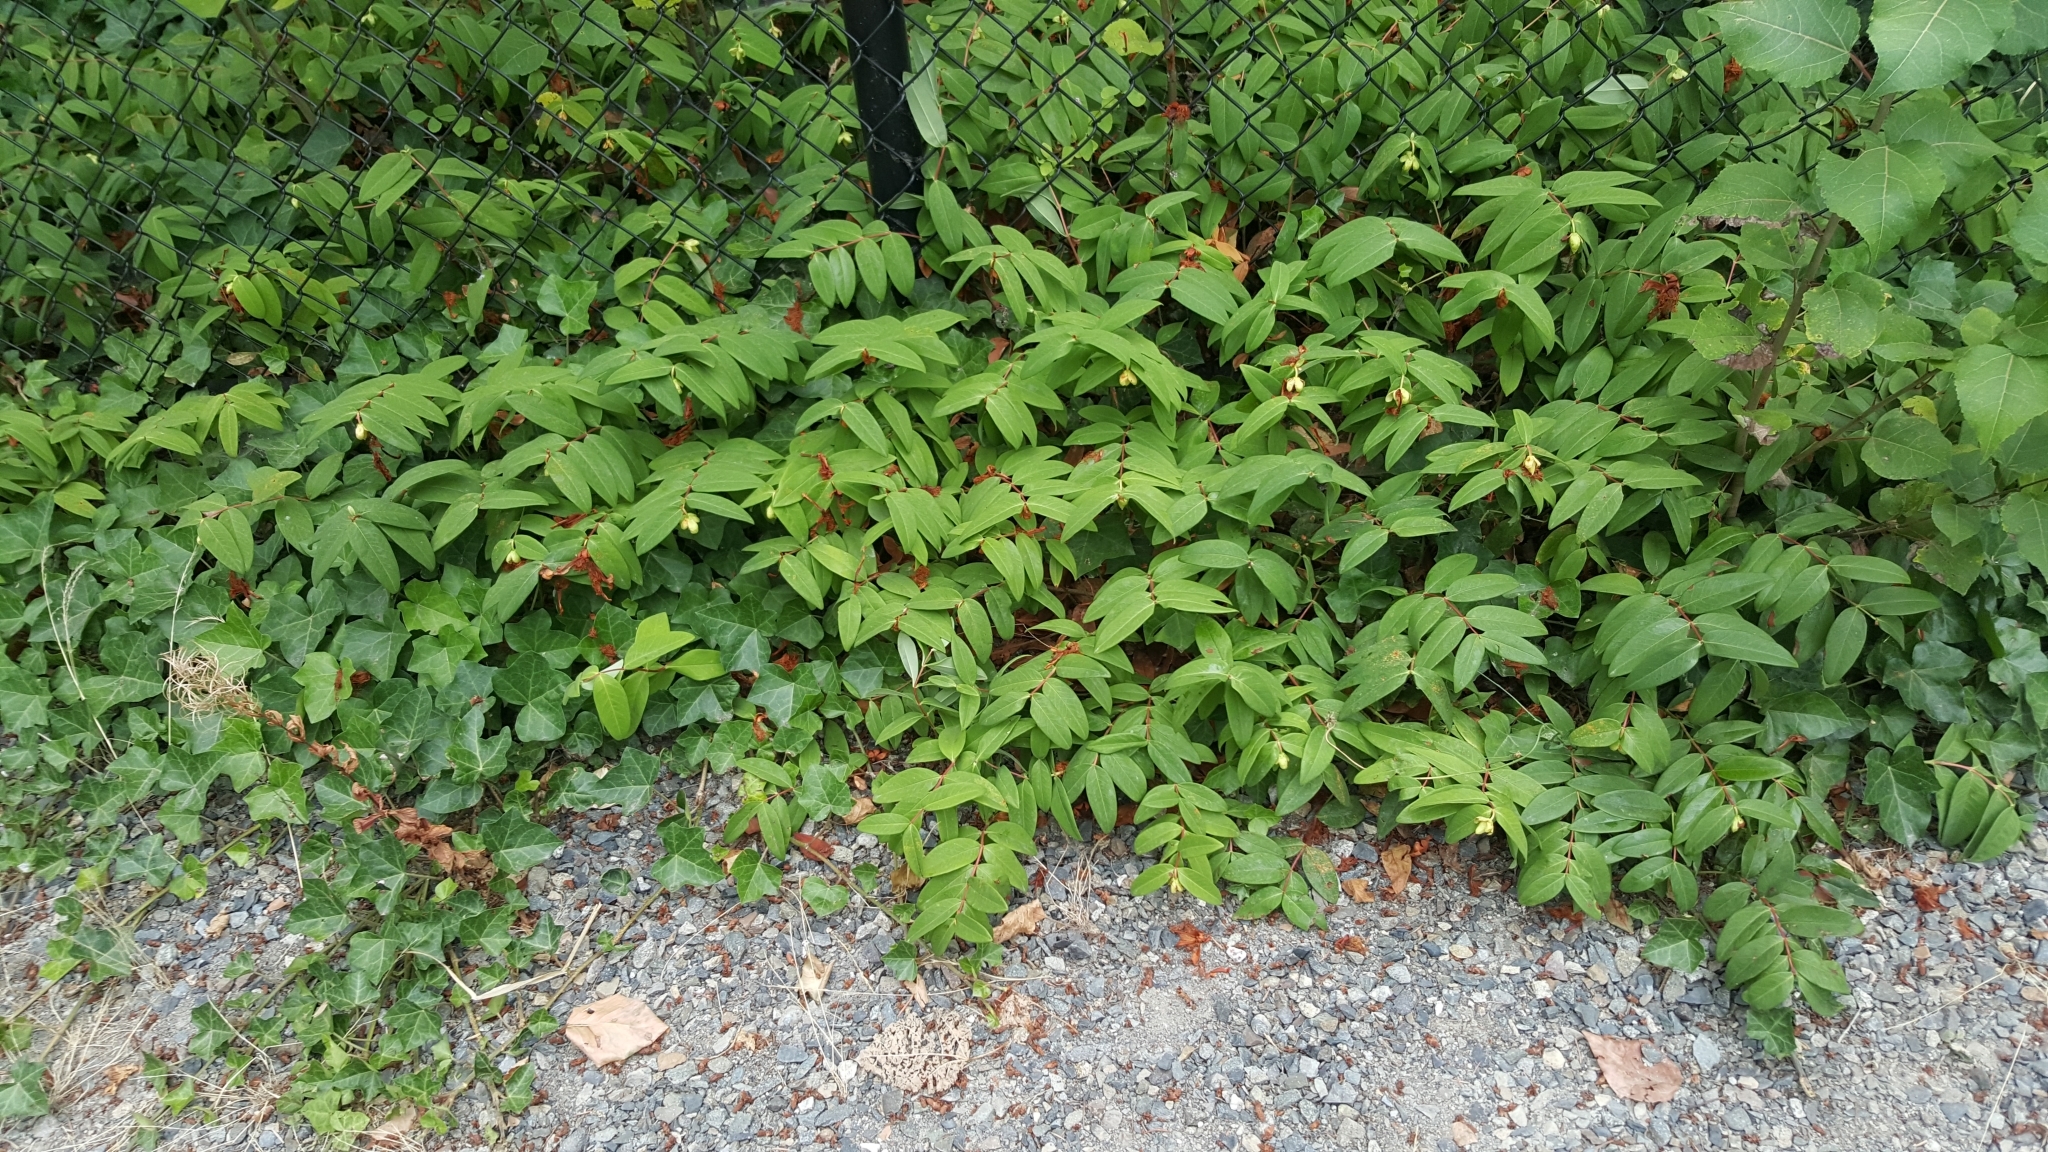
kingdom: Plantae
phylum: Tracheophyta
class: Magnoliopsida
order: Malpighiales
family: Hypericaceae
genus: Hypericum
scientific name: Hypericum calycinum
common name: Rose-of-sharon
